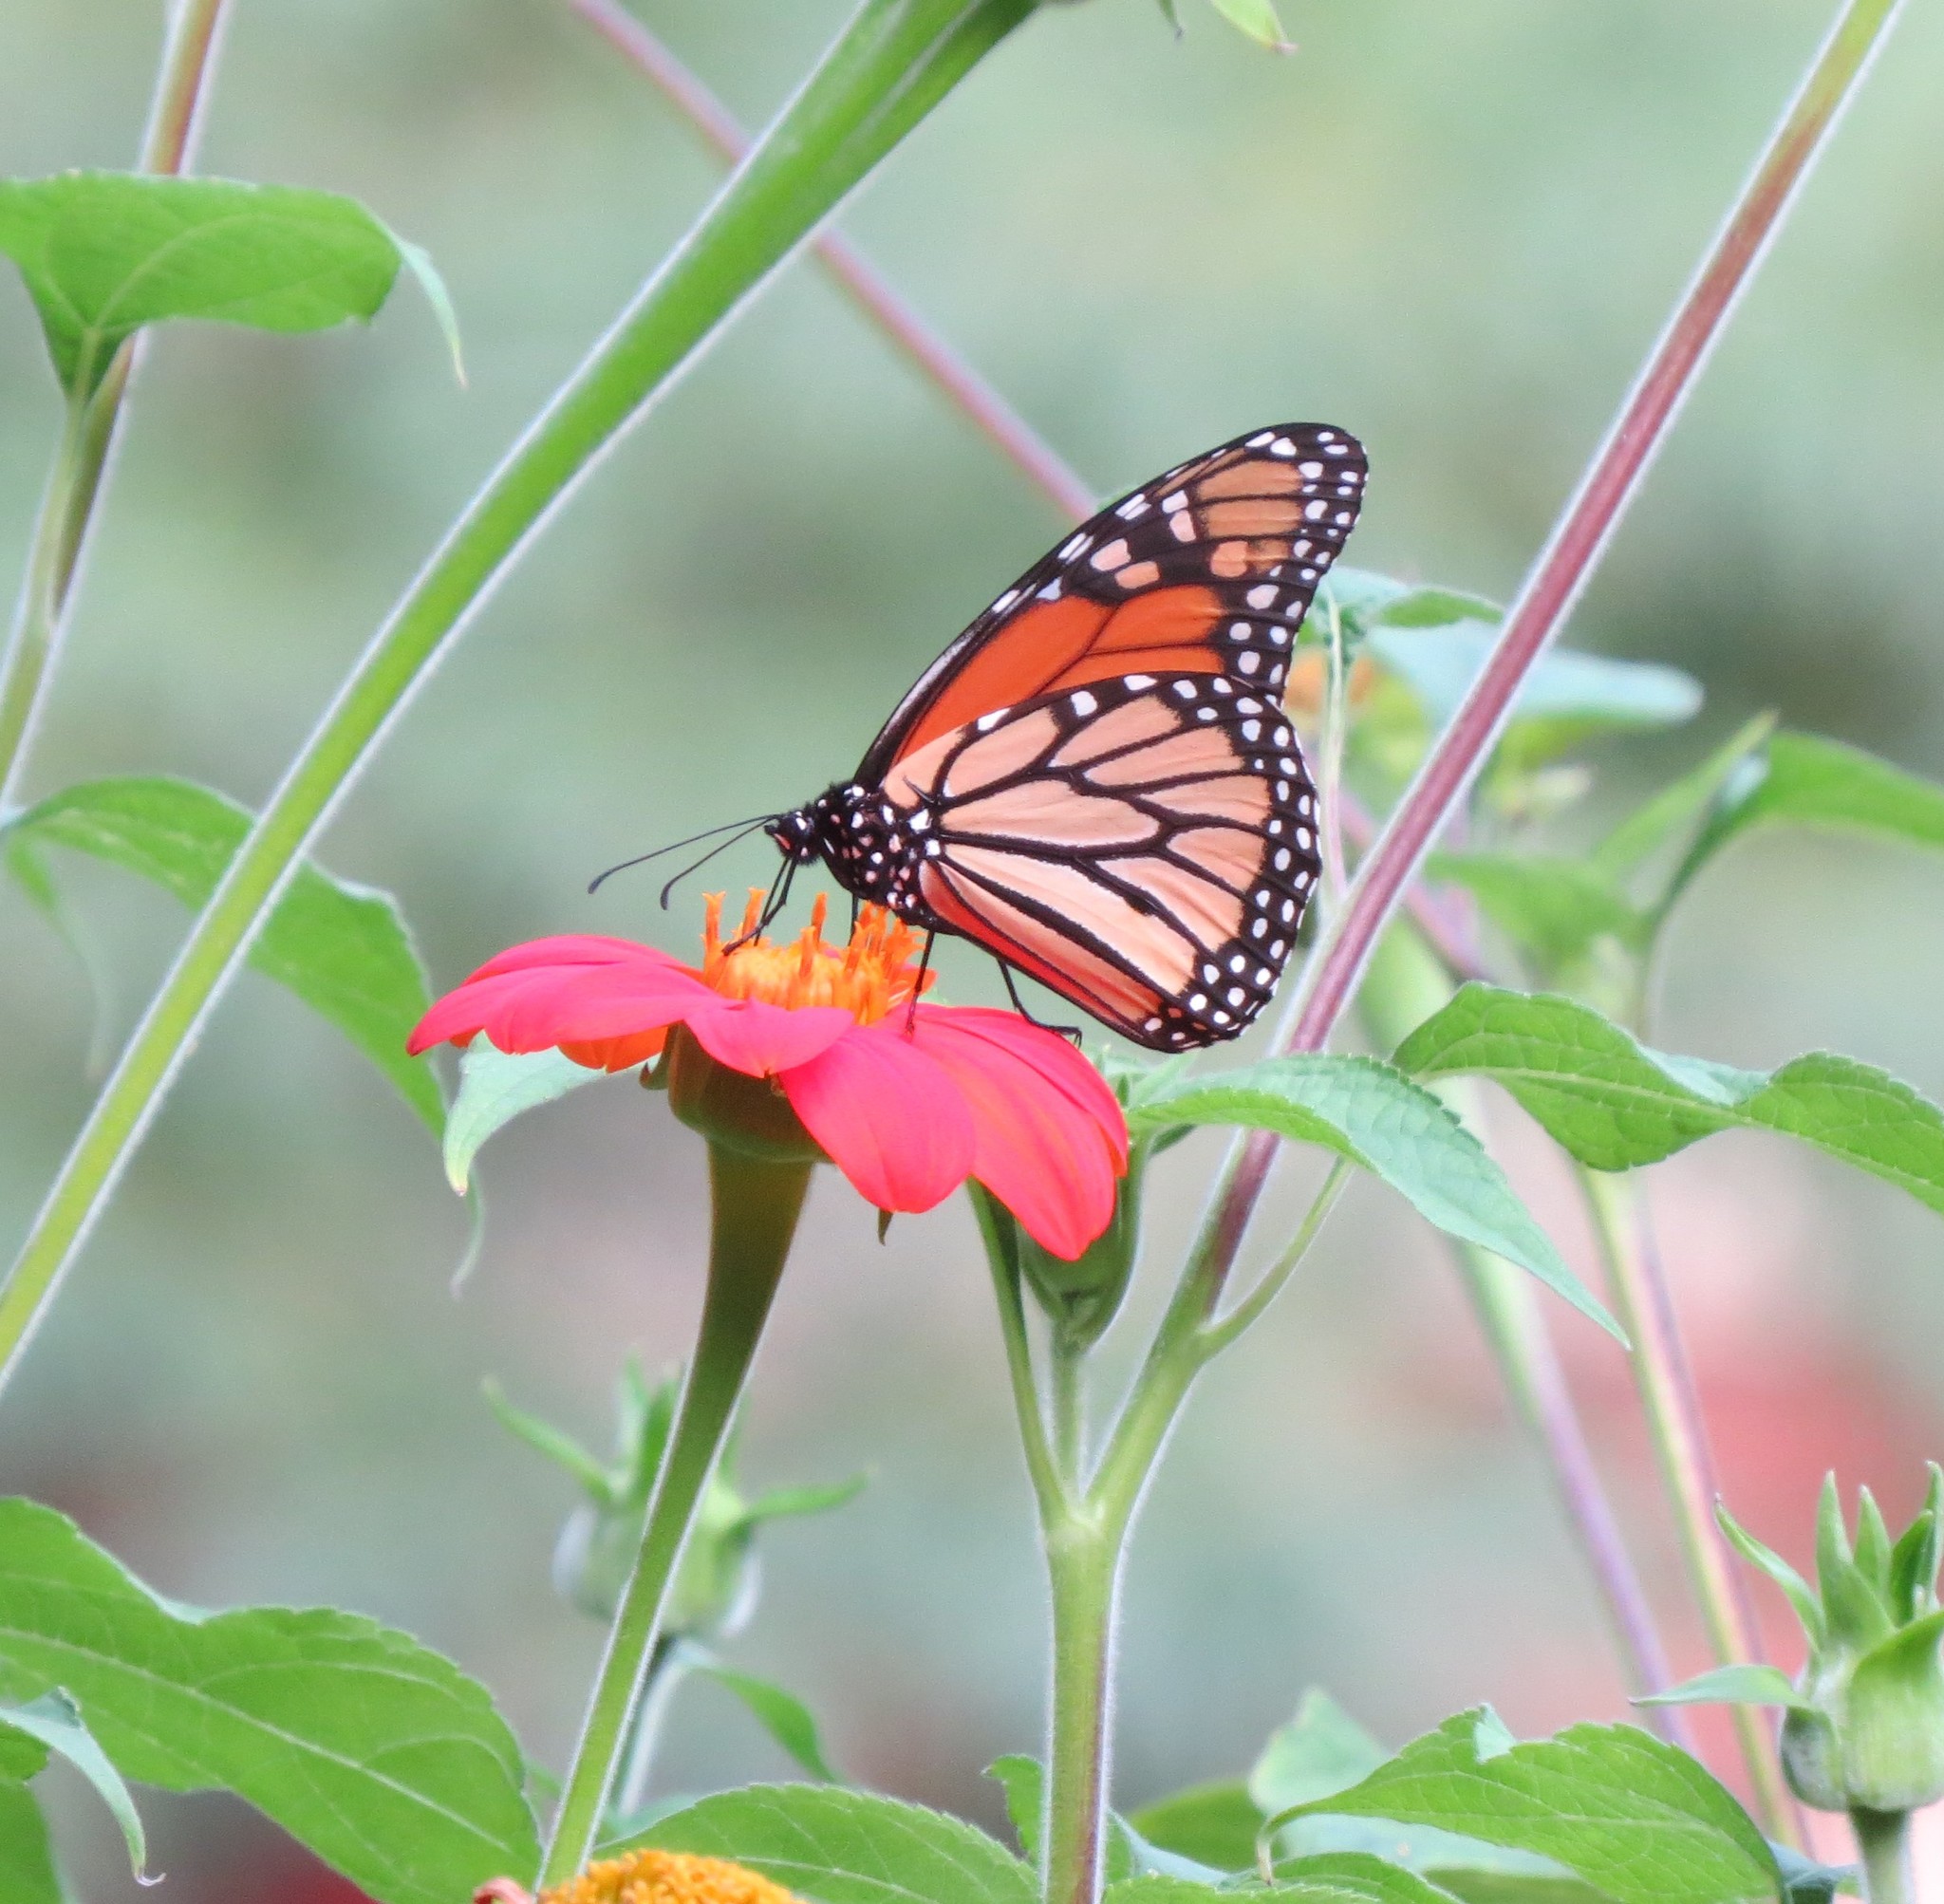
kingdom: Animalia
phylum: Arthropoda
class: Insecta
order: Lepidoptera
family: Nymphalidae
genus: Danaus
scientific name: Danaus plexippus
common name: Monarch
